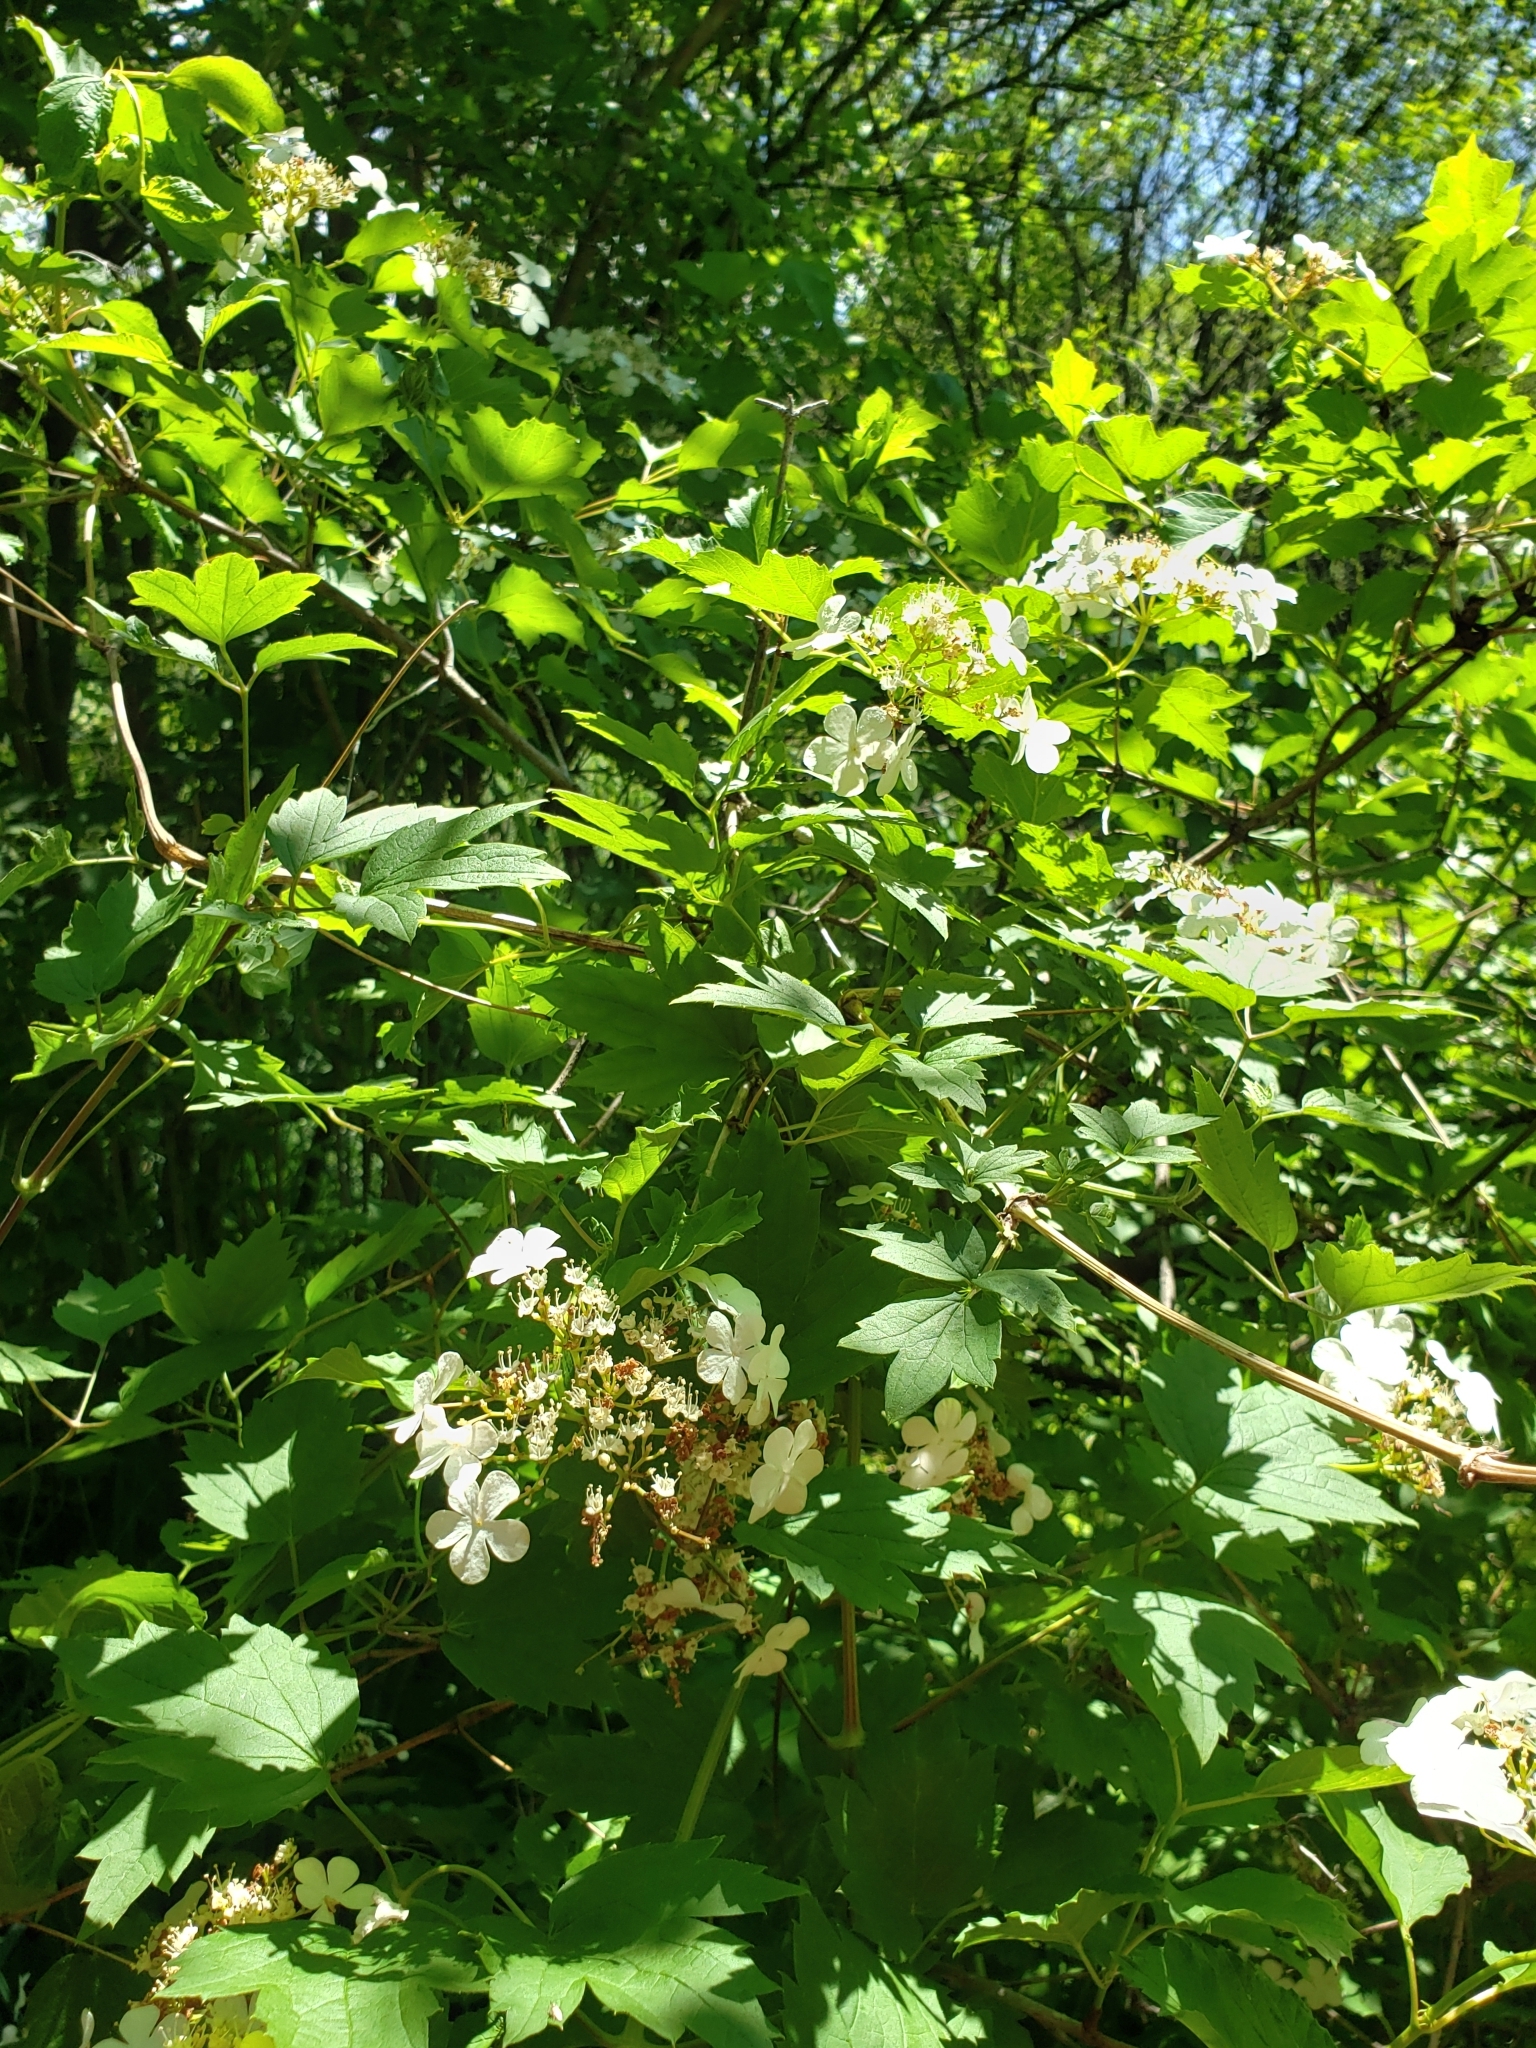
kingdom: Plantae
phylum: Tracheophyta
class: Magnoliopsida
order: Dipsacales
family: Viburnaceae
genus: Viburnum
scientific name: Viburnum opulus
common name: Guelder-rose
